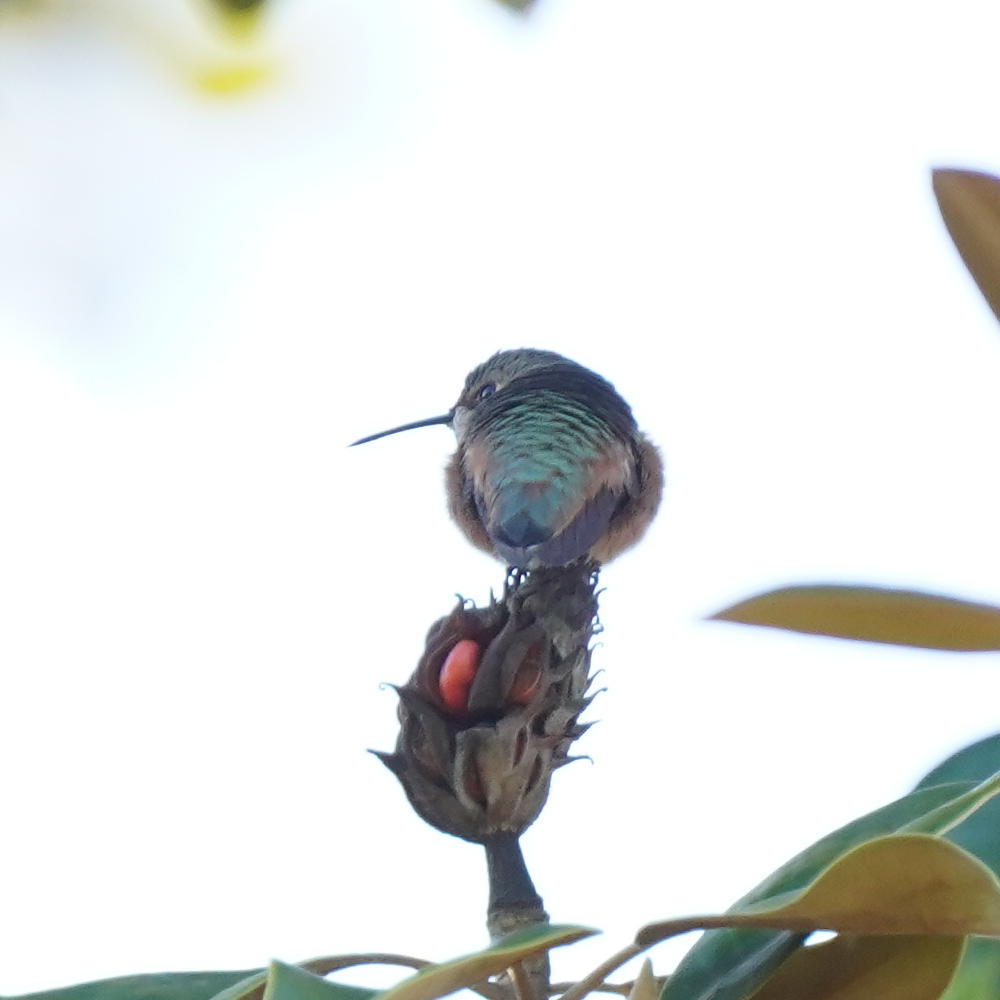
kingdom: Animalia
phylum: Chordata
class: Aves
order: Apodiformes
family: Trochilidae
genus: Selasphorus
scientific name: Selasphorus sasin
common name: Allen's hummingbird
